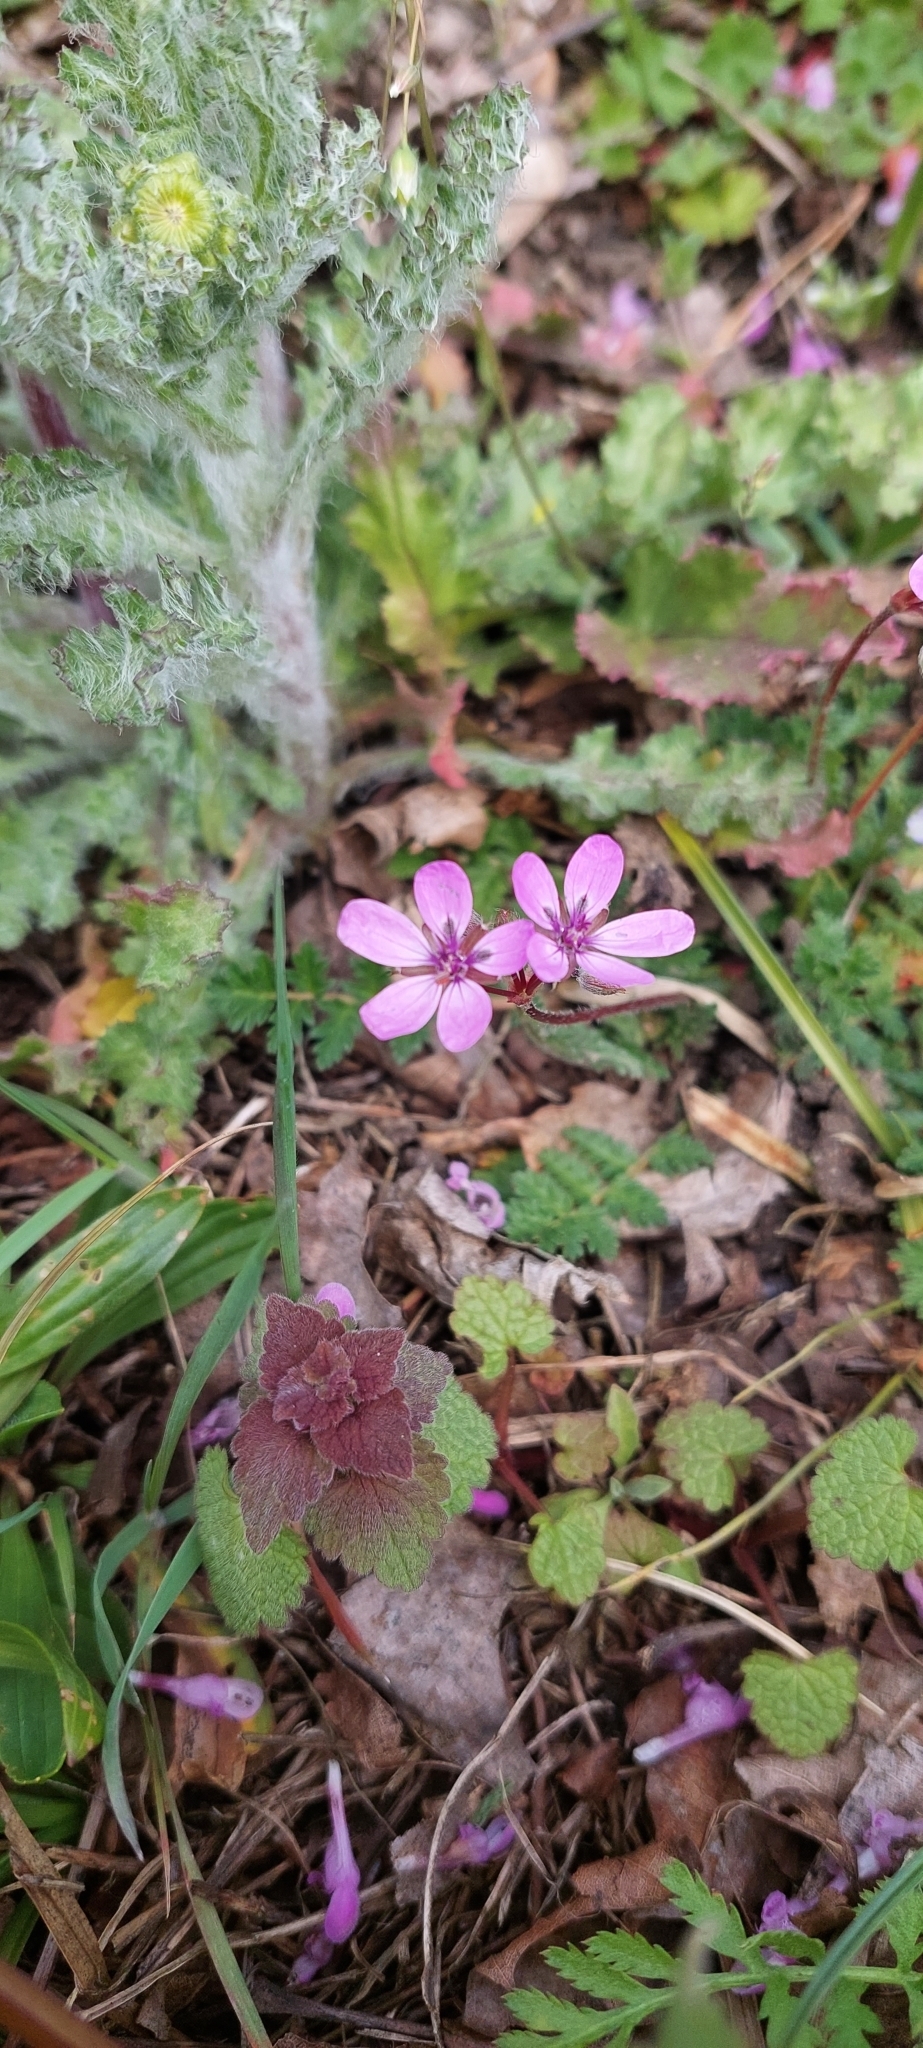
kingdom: Plantae
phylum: Tracheophyta
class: Magnoliopsida
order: Geraniales
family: Geraniaceae
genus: Erodium
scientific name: Erodium cicutarium
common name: Common stork's-bill
